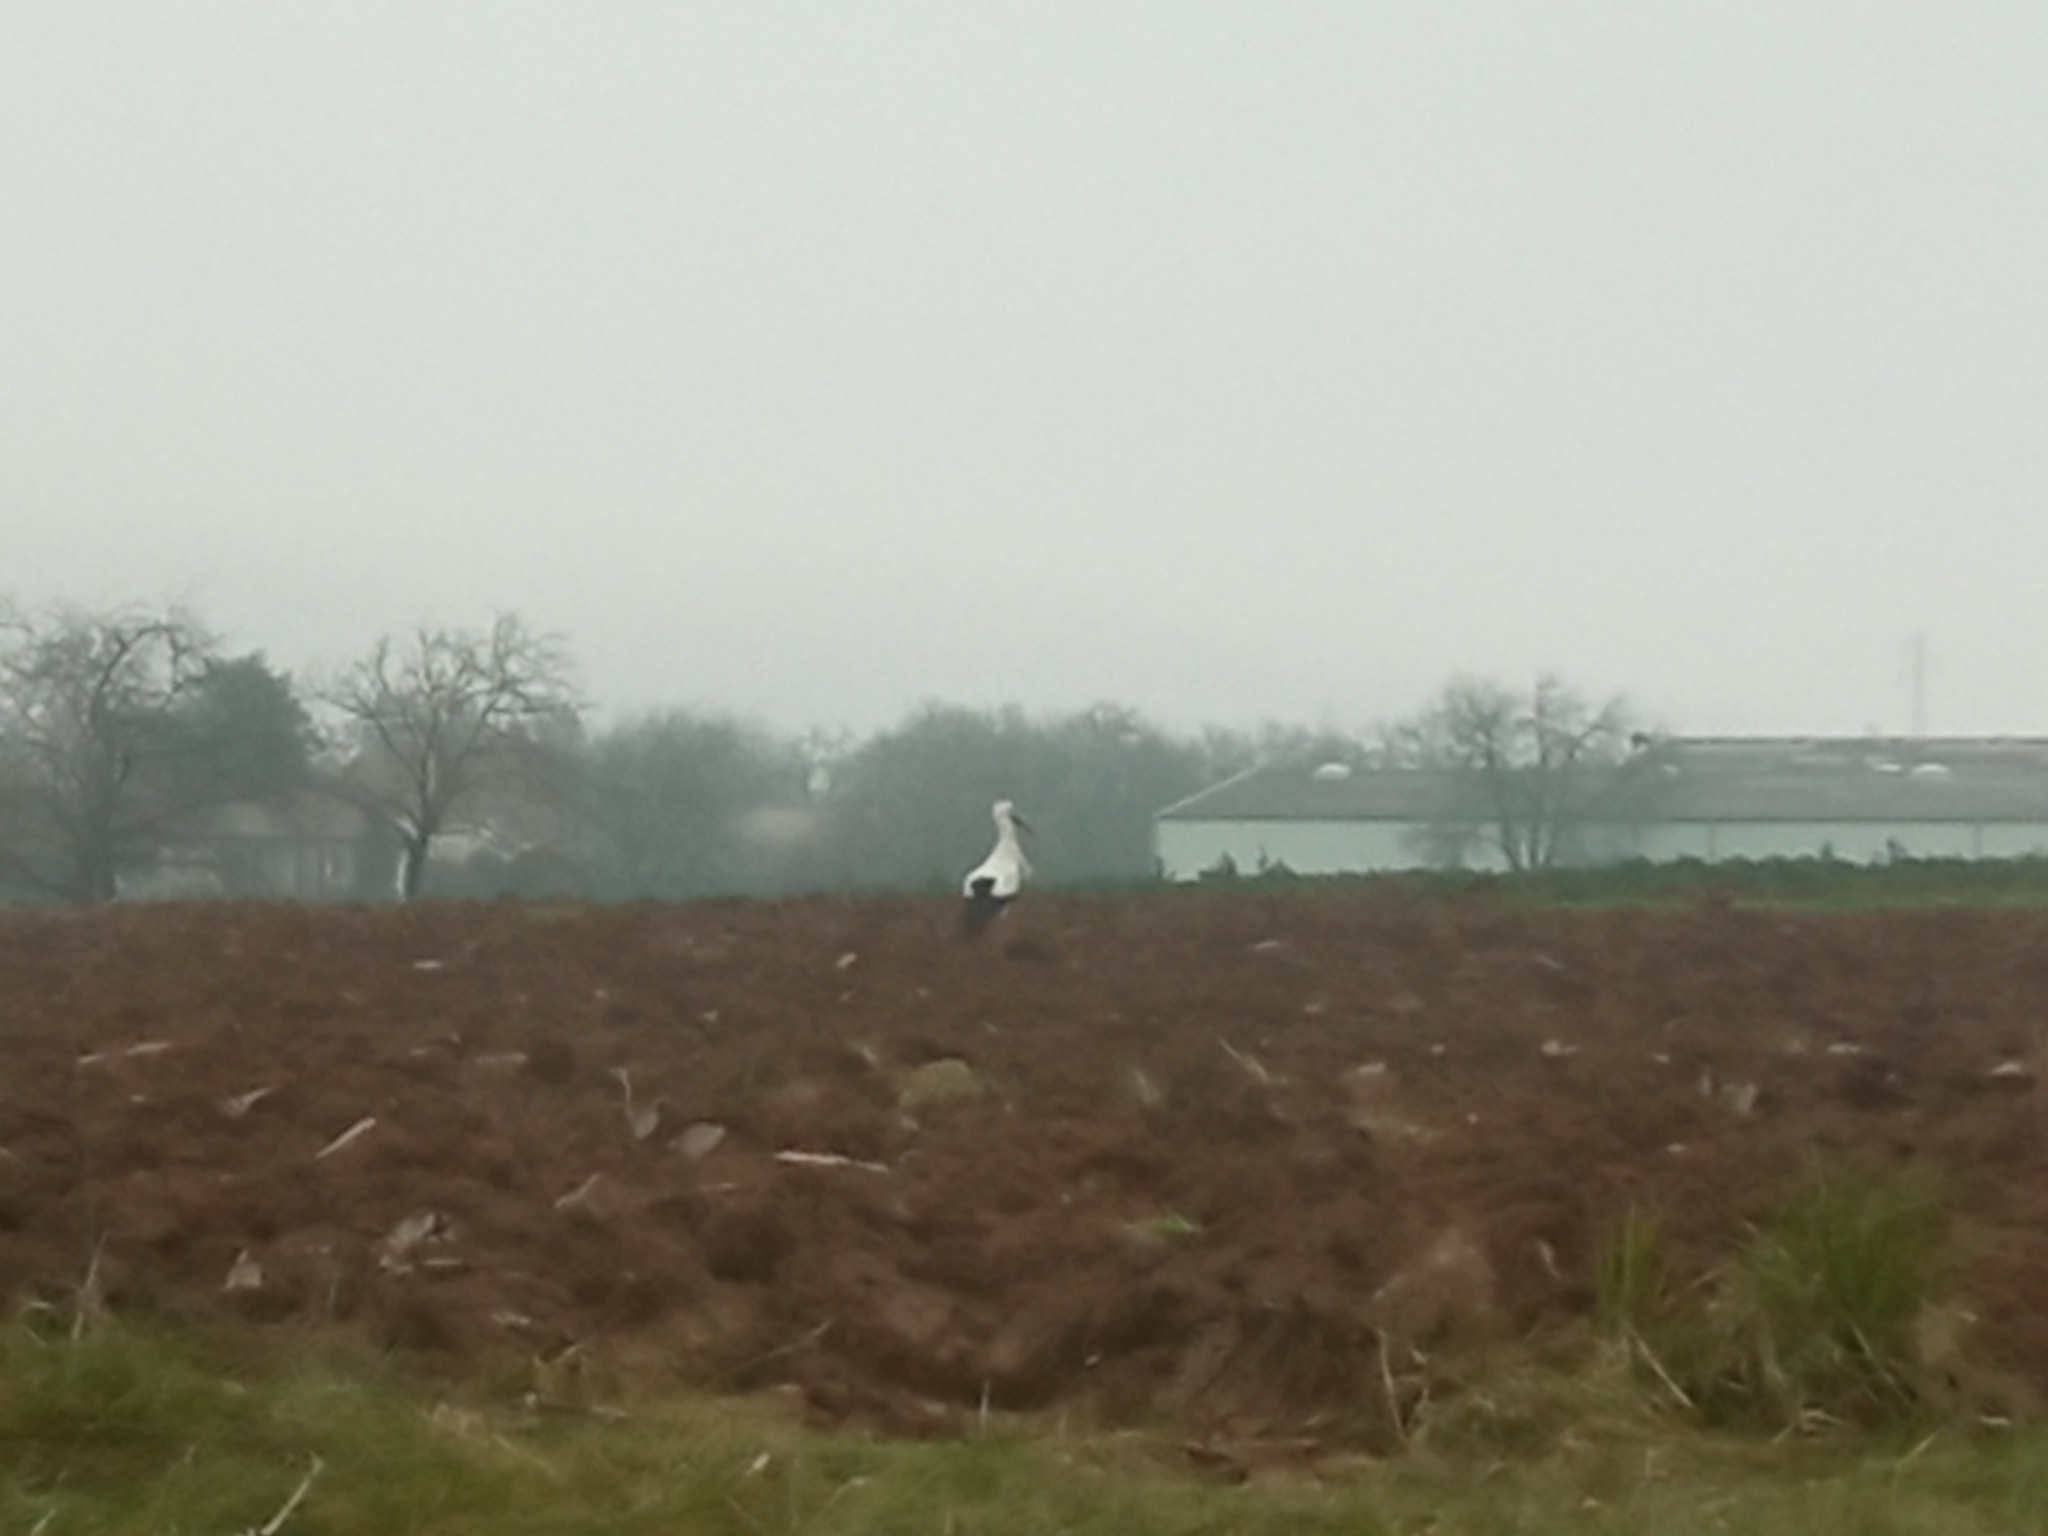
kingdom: Animalia
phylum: Chordata
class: Aves
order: Ciconiiformes
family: Ciconiidae
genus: Ciconia
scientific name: Ciconia ciconia
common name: White stork
